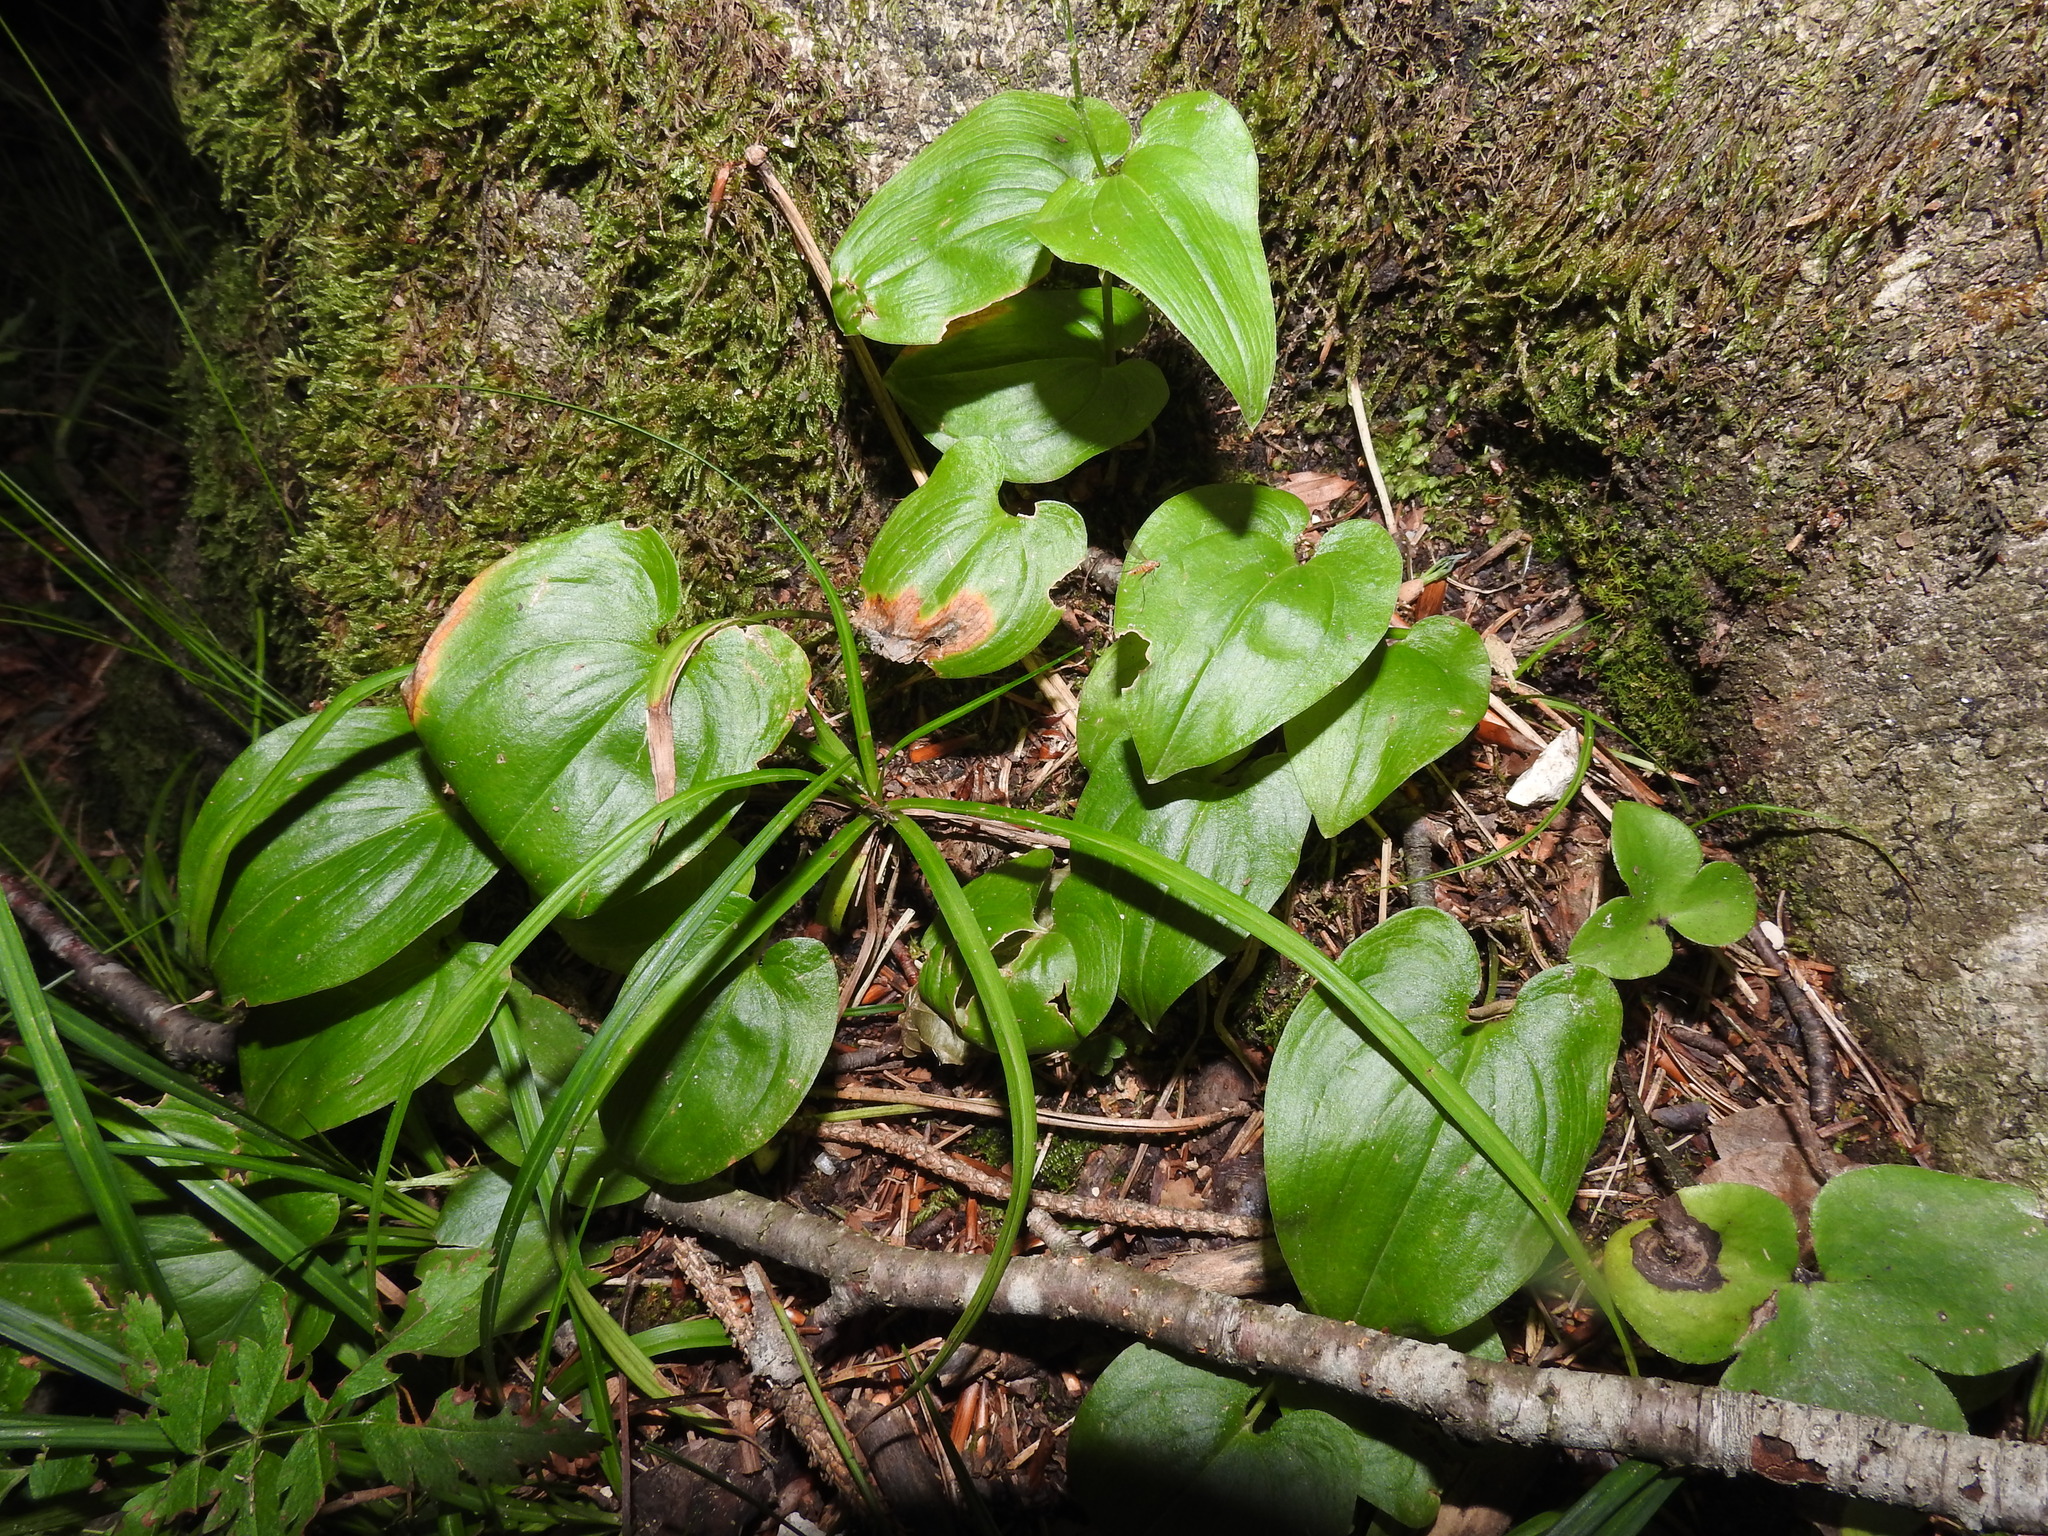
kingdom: Plantae
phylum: Tracheophyta
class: Liliopsida
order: Asparagales
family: Asparagaceae
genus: Maianthemum
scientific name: Maianthemum bifolium
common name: May lily
